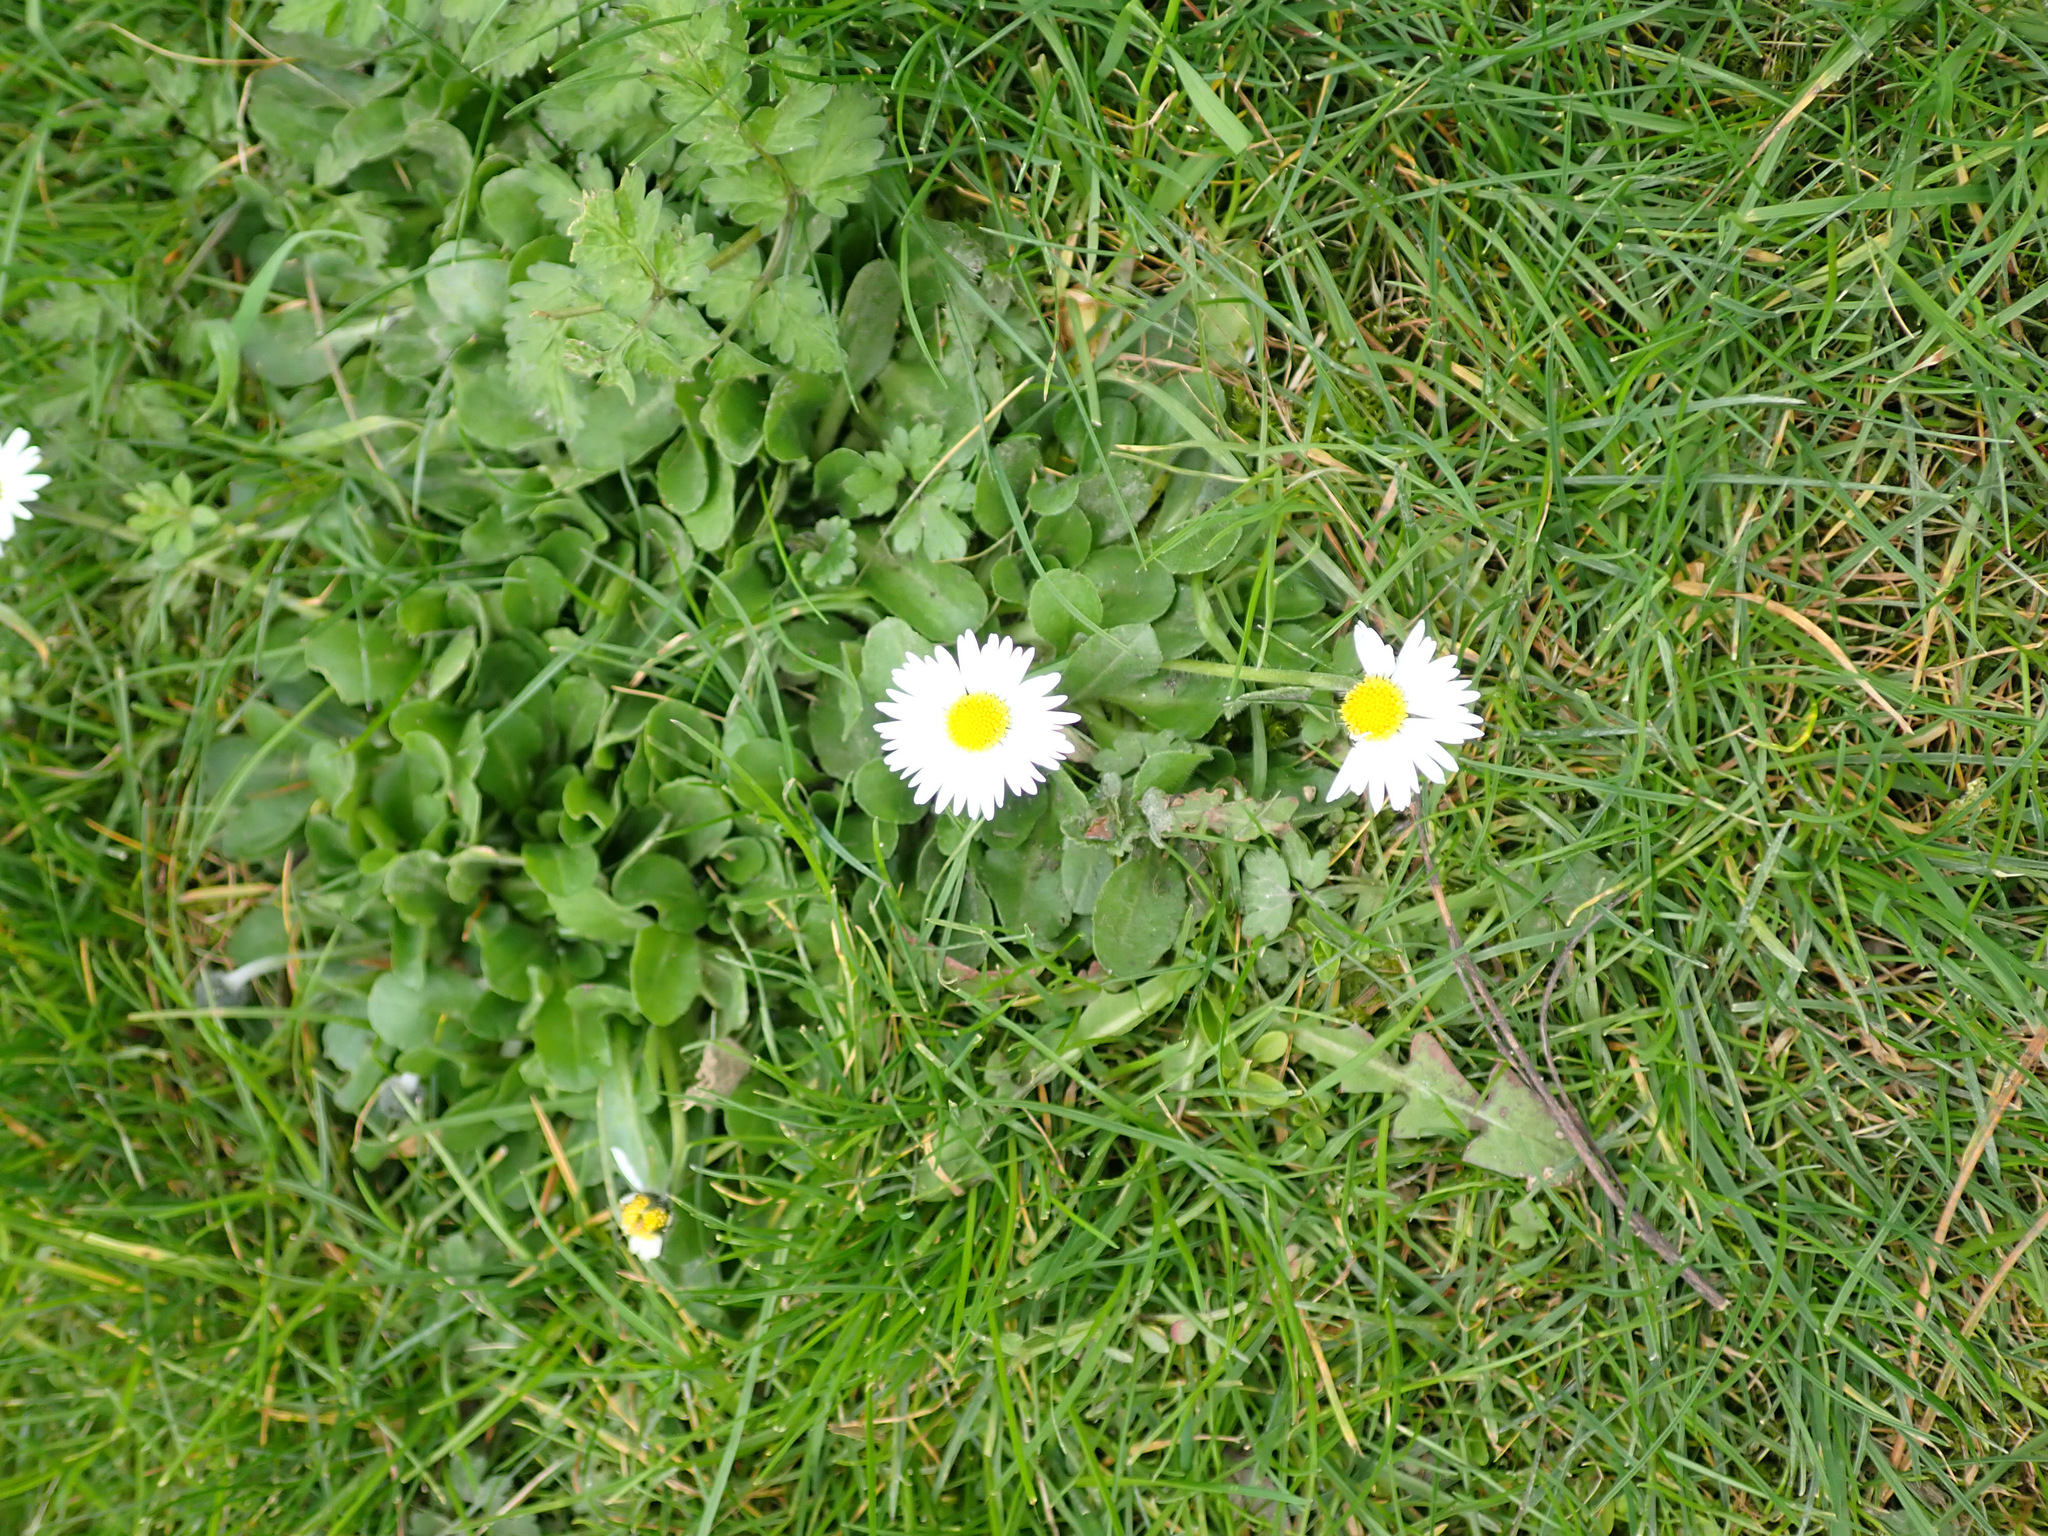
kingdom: Plantae
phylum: Tracheophyta
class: Magnoliopsida
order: Asterales
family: Asteraceae
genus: Bellis
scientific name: Bellis perennis
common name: Lawndaisy
